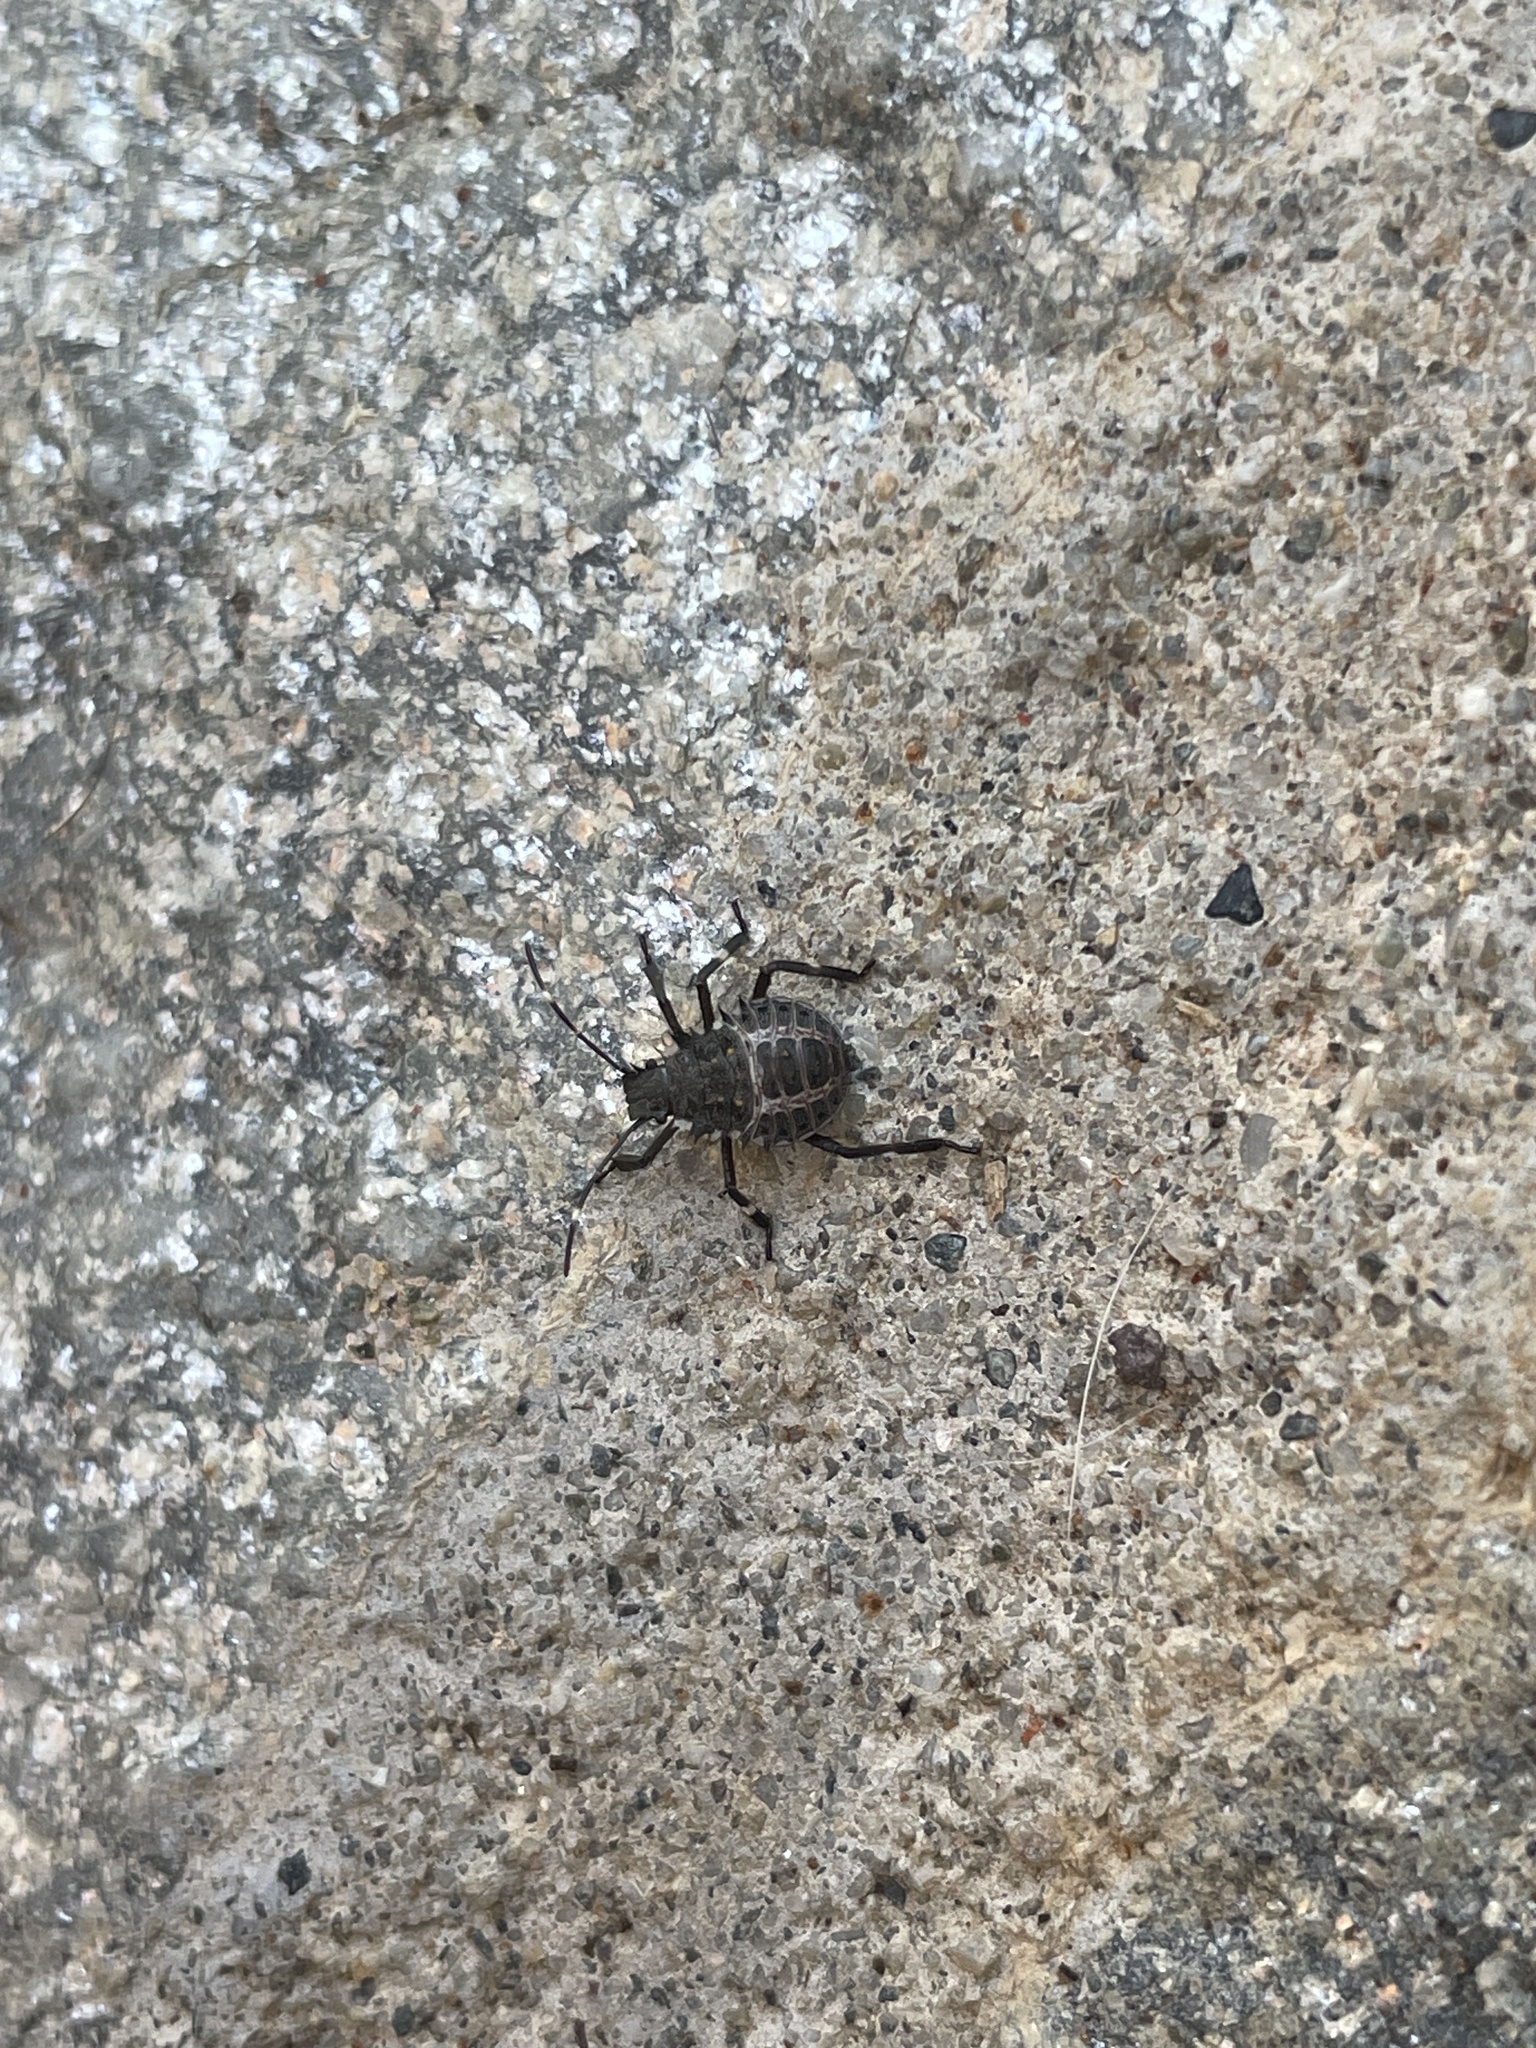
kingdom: Animalia
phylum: Arthropoda
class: Insecta
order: Hemiptera
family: Pentatomidae
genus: Halyomorpha
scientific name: Halyomorpha halys
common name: Brown marmorated stink bug
